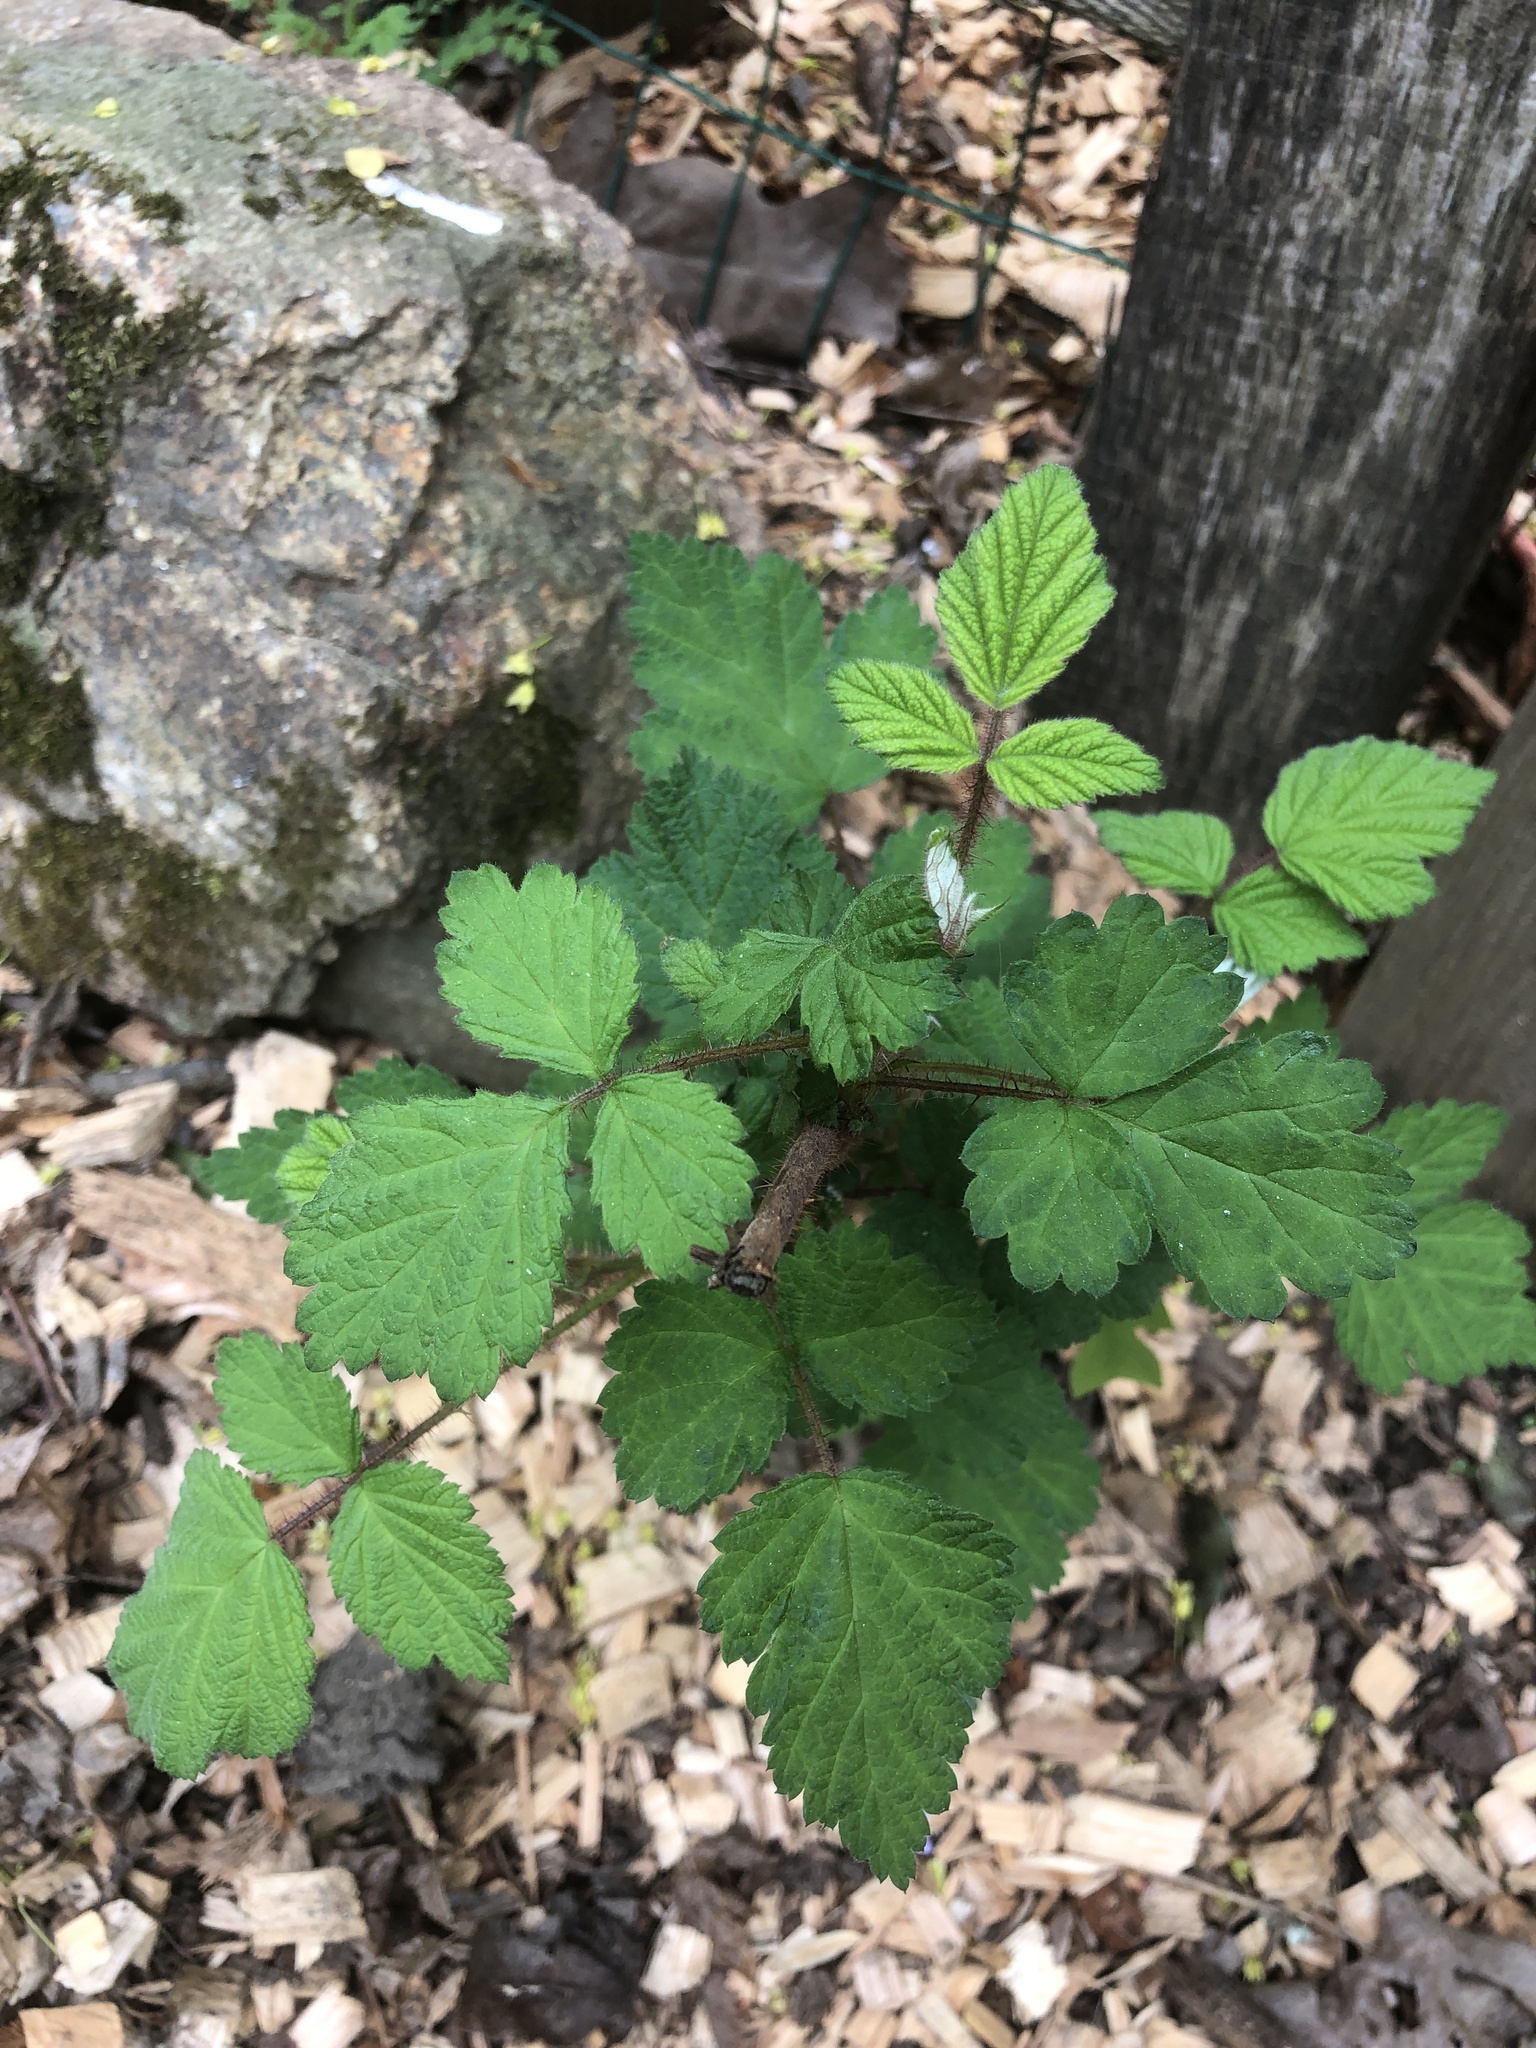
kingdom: Plantae
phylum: Tracheophyta
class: Magnoliopsida
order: Rosales
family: Rosaceae
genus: Rubus
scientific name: Rubus phoenicolasius
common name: Japanese wineberry
